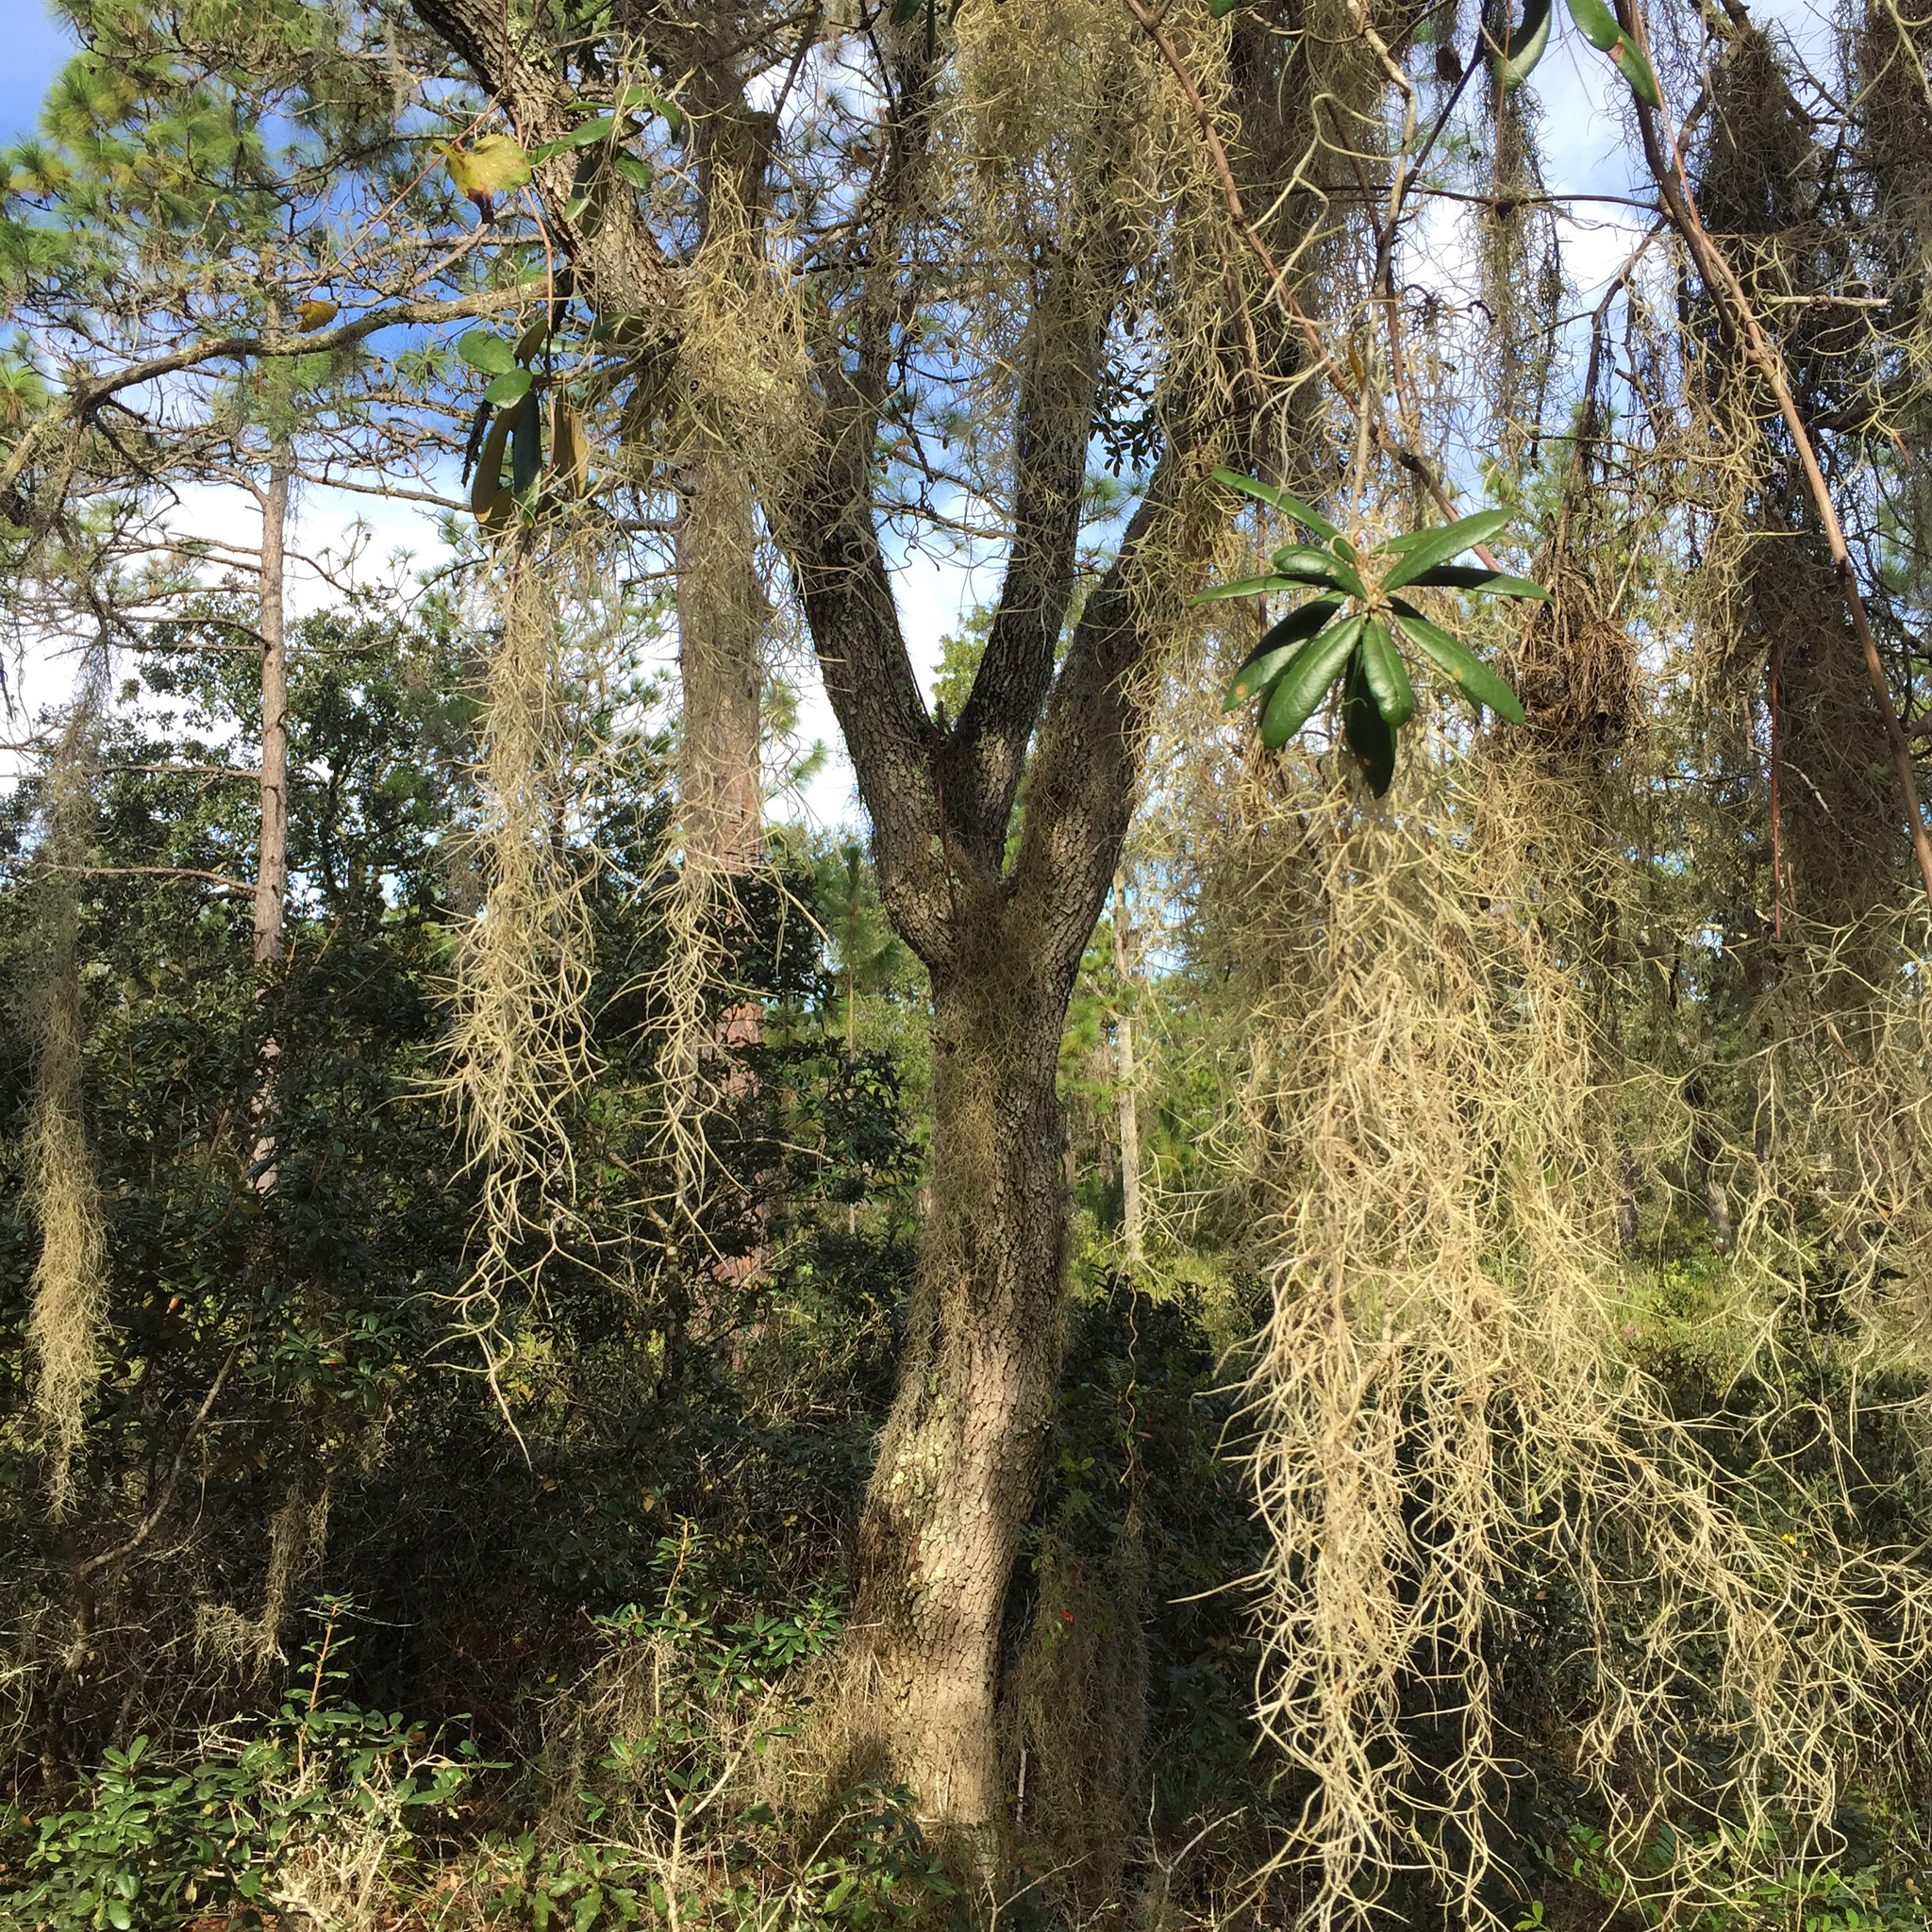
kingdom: Plantae
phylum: Tracheophyta
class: Liliopsida
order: Poales
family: Bromeliaceae
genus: Tillandsia
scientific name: Tillandsia usneoides
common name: Spanish moss
